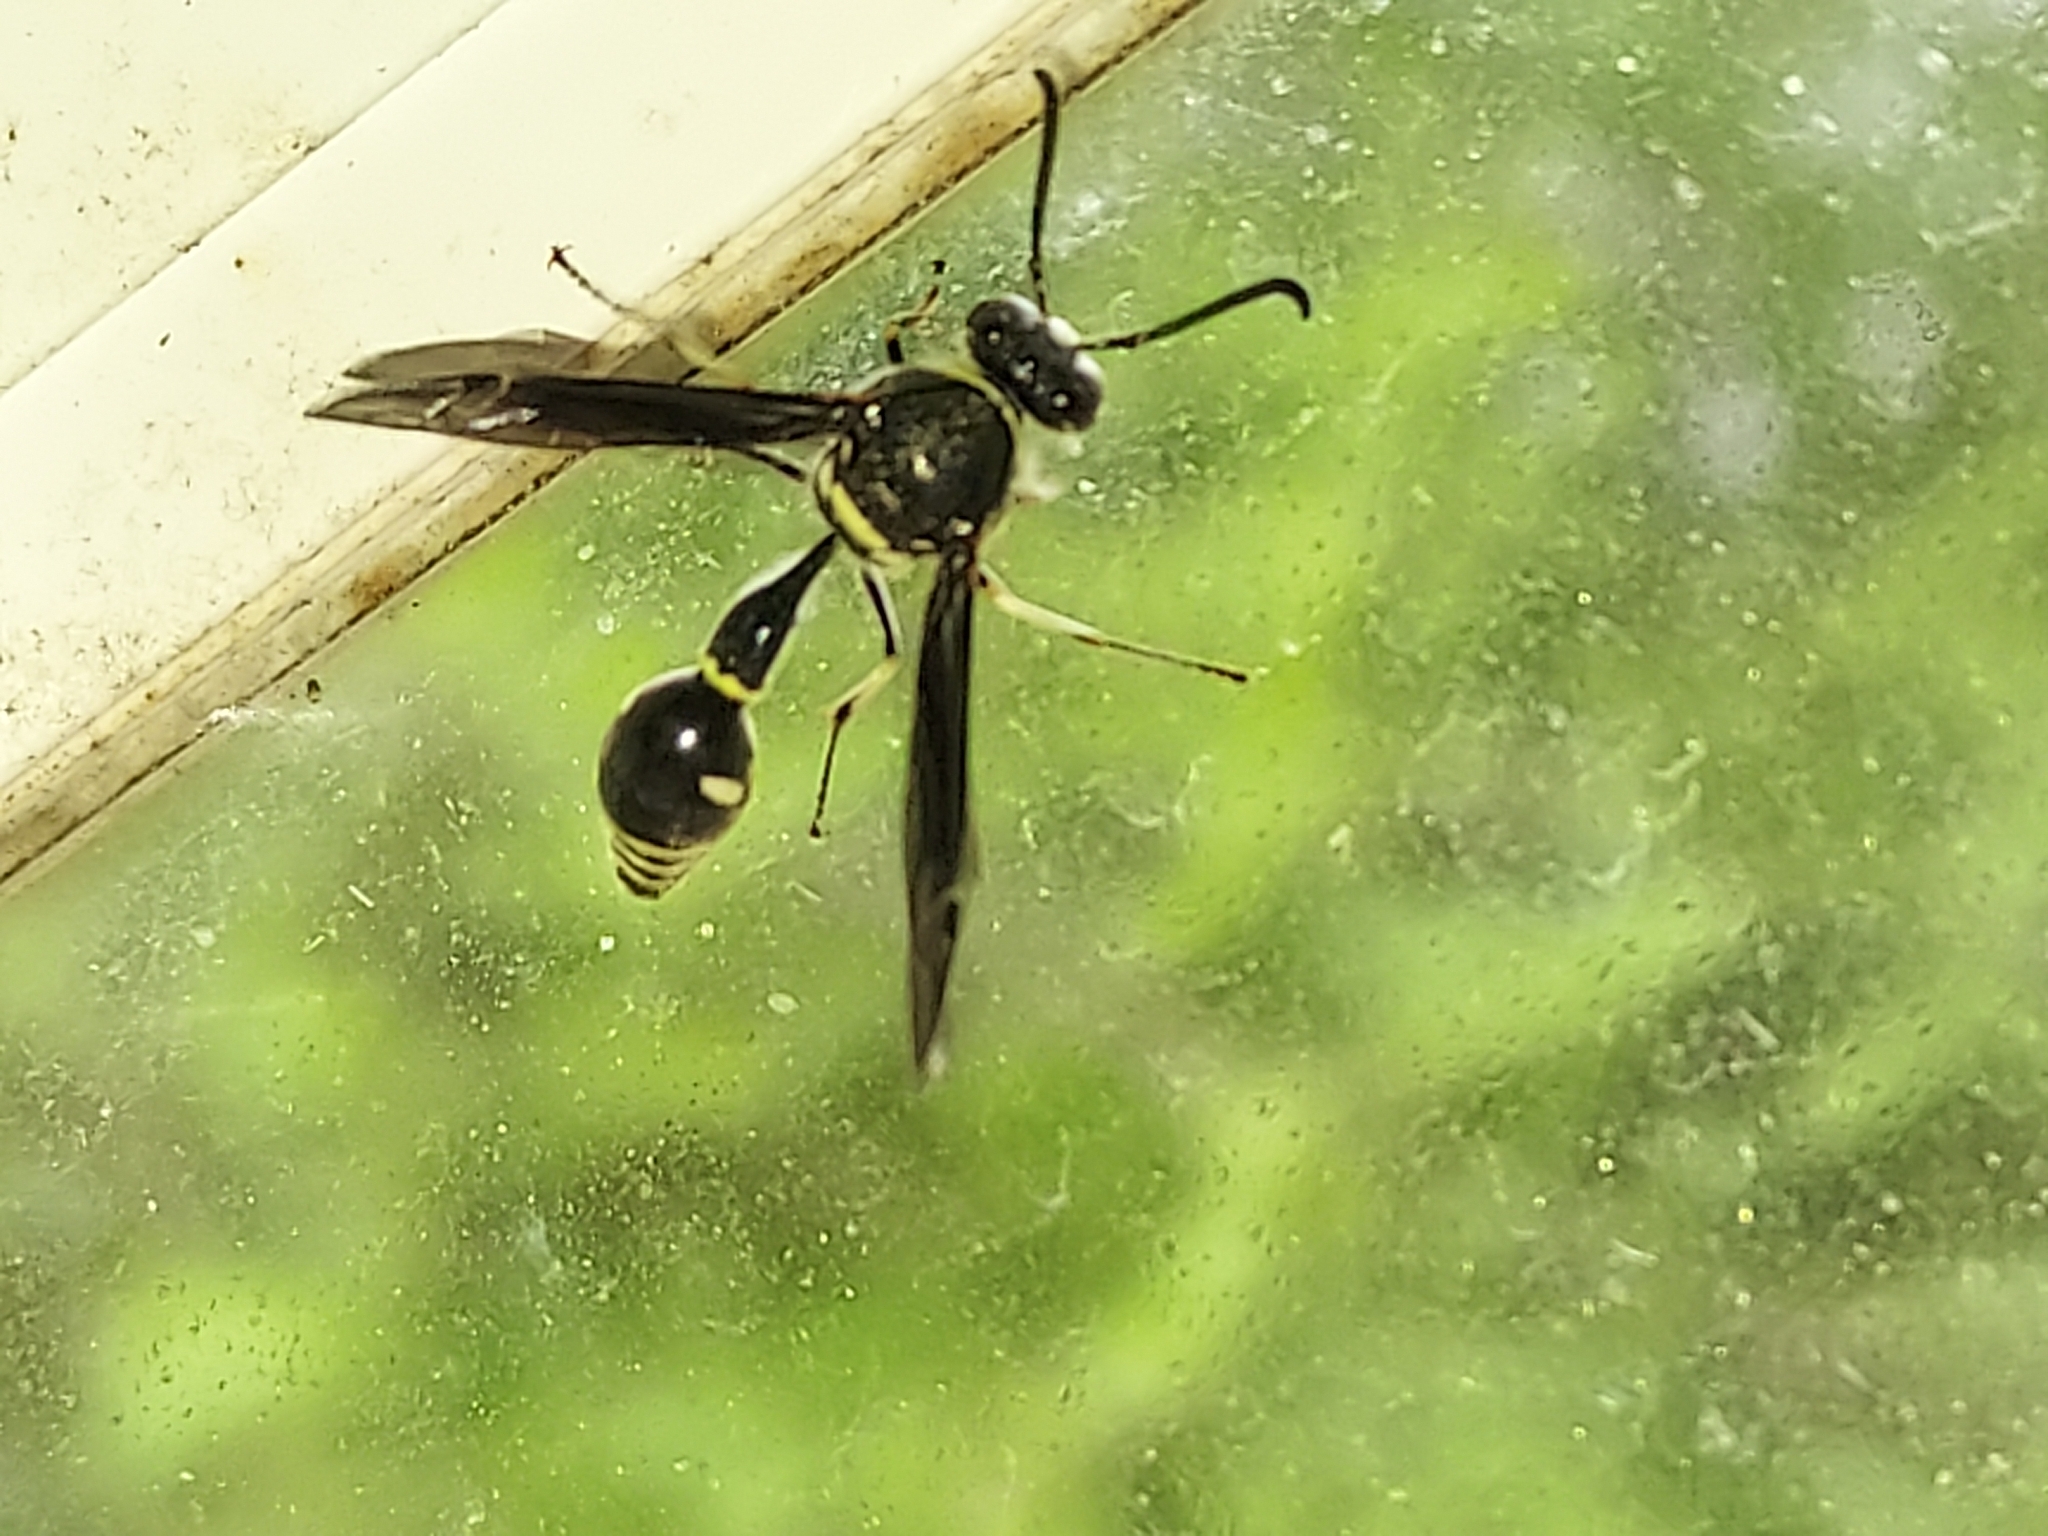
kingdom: Animalia
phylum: Arthropoda
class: Insecta
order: Hymenoptera
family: Vespidae
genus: Eumenes
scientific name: Eumenes fraternus
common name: Fraternal potter wasp
